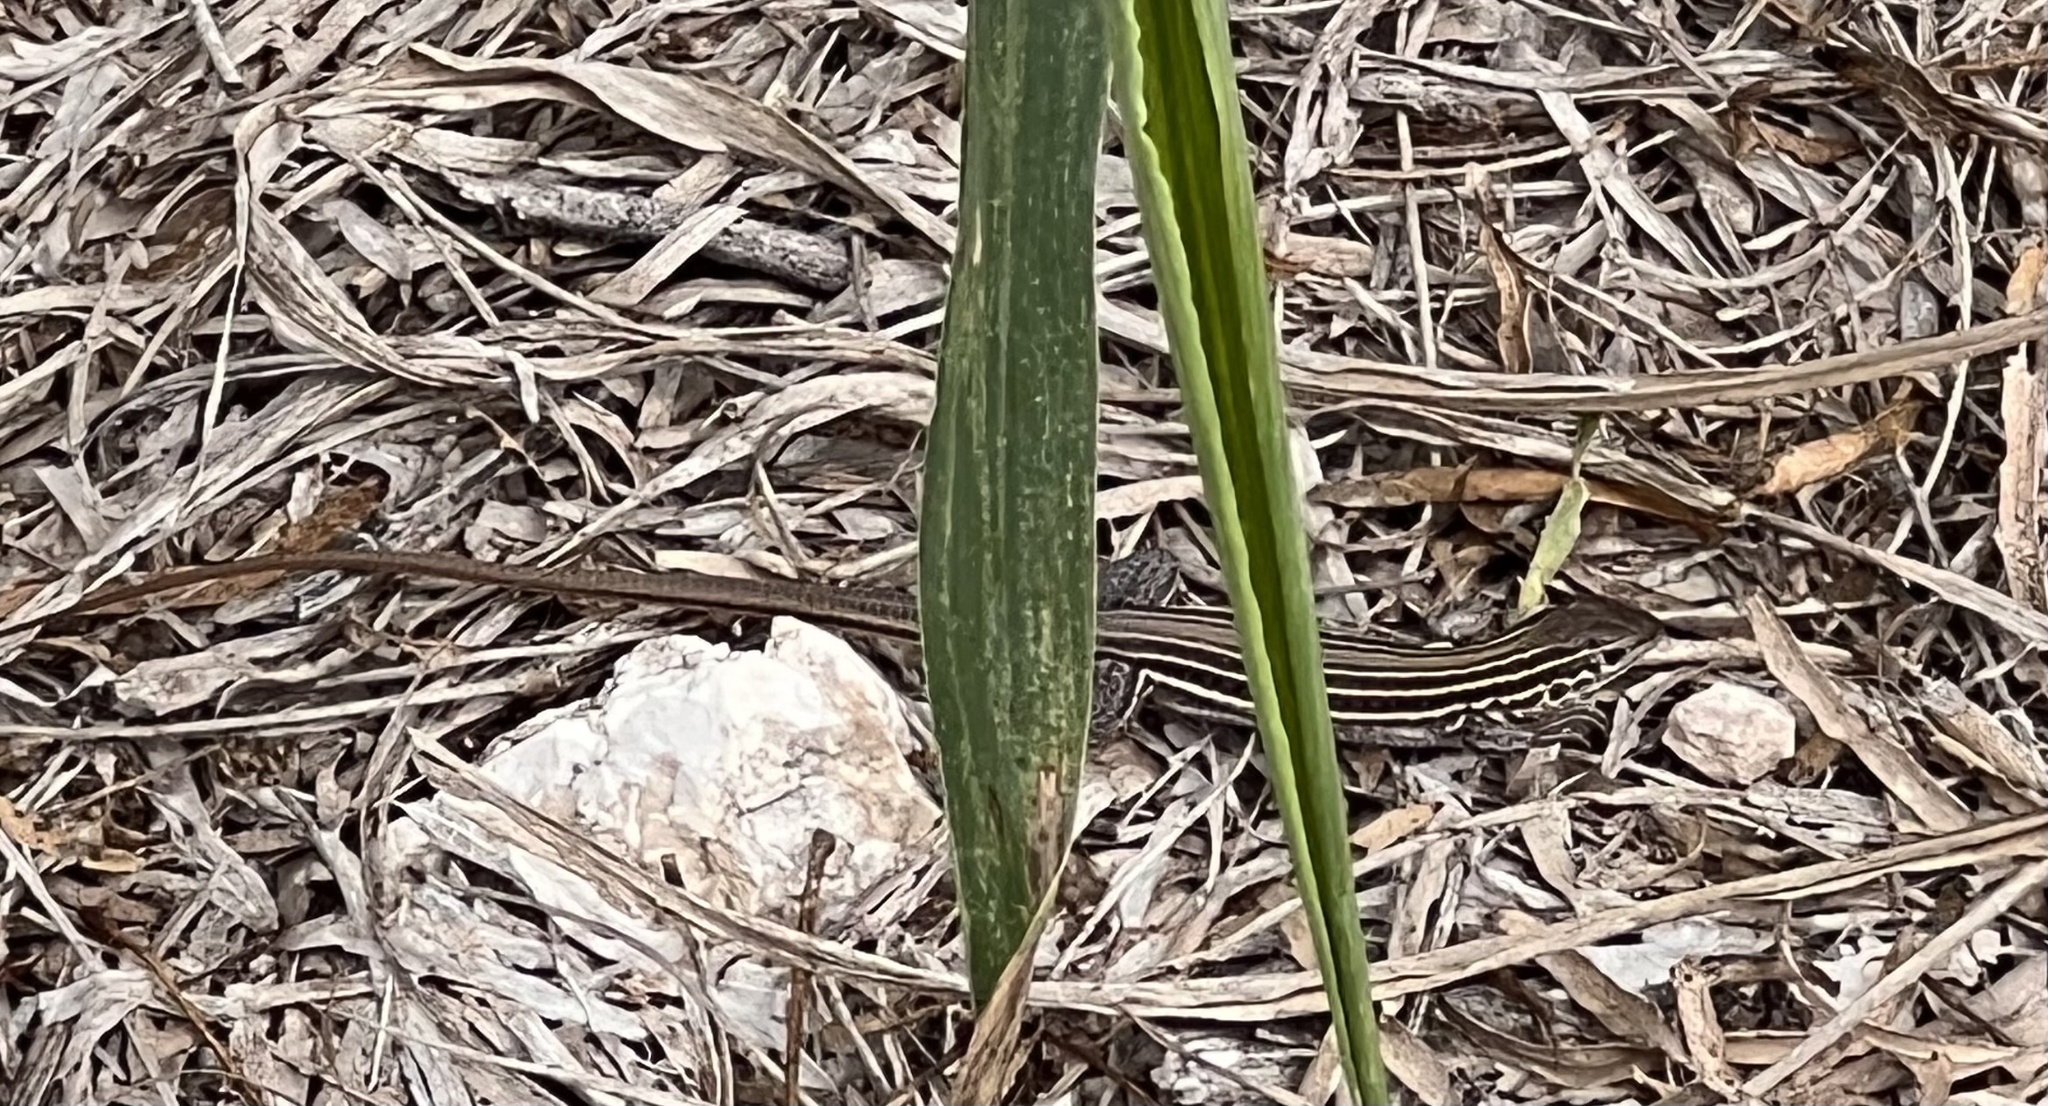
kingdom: Animalia
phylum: Chordata
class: Squamata
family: Teiidae
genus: Aspidoscelis
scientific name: Aspidoscelis gularis
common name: Eastern spotted whiptail
